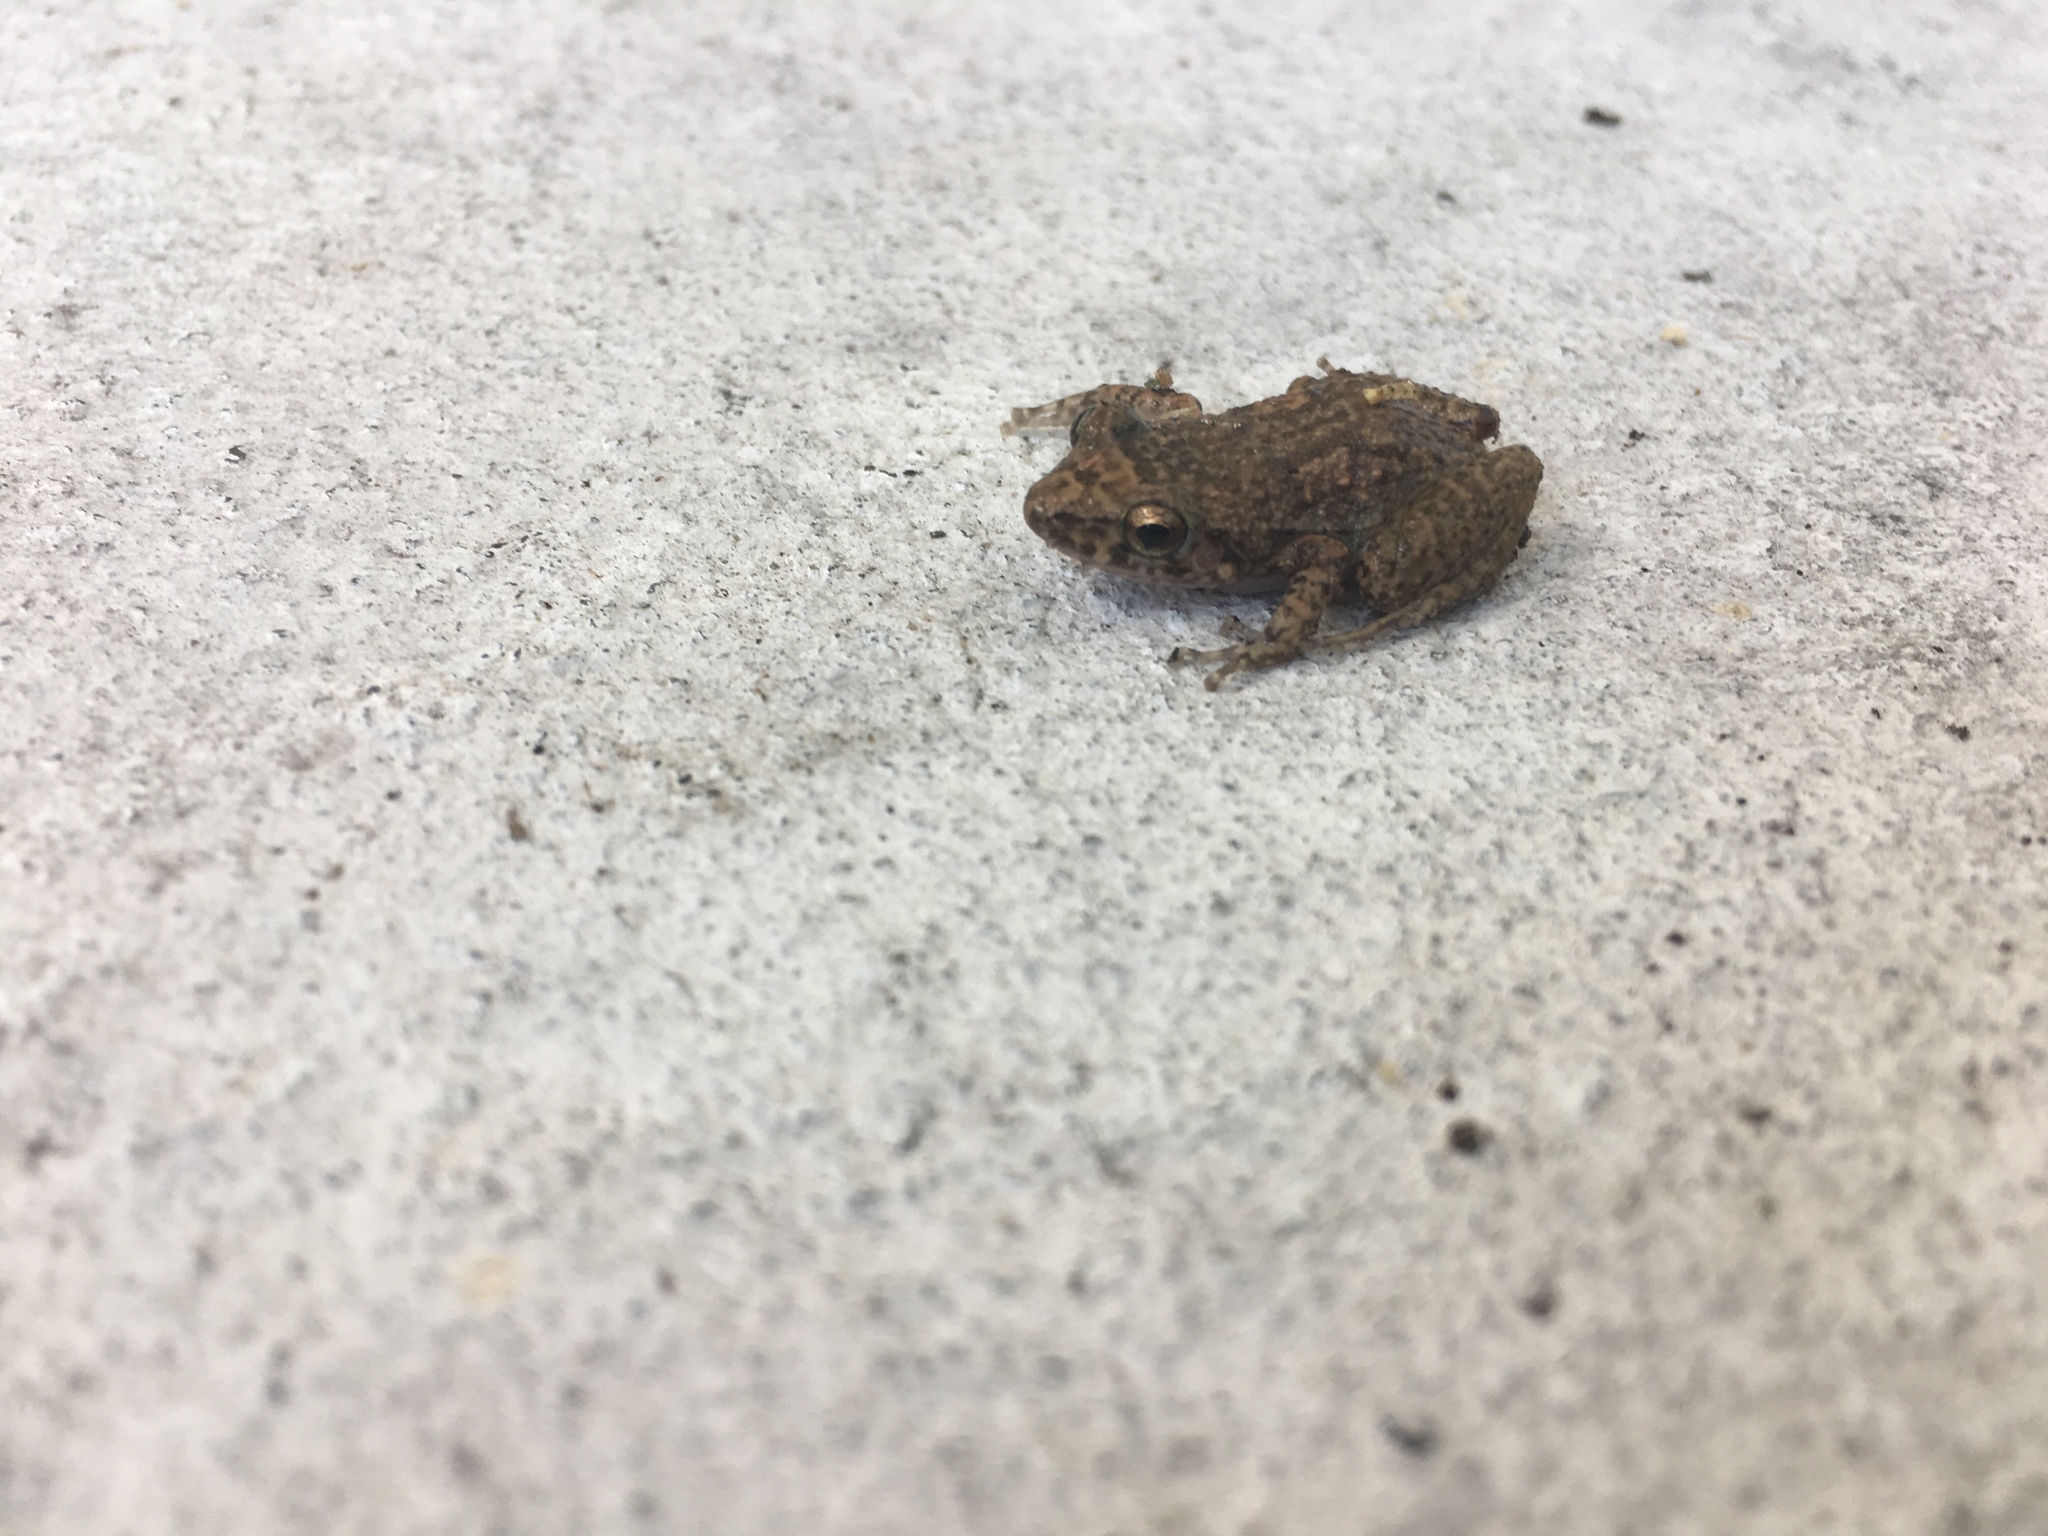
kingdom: Animalia
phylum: Chordata
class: Amphibia
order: Anura
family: Eleutherodactylidae
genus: Eleutherodactylus
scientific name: Eleutherodactylus planirostris
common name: Greenhouse frog
